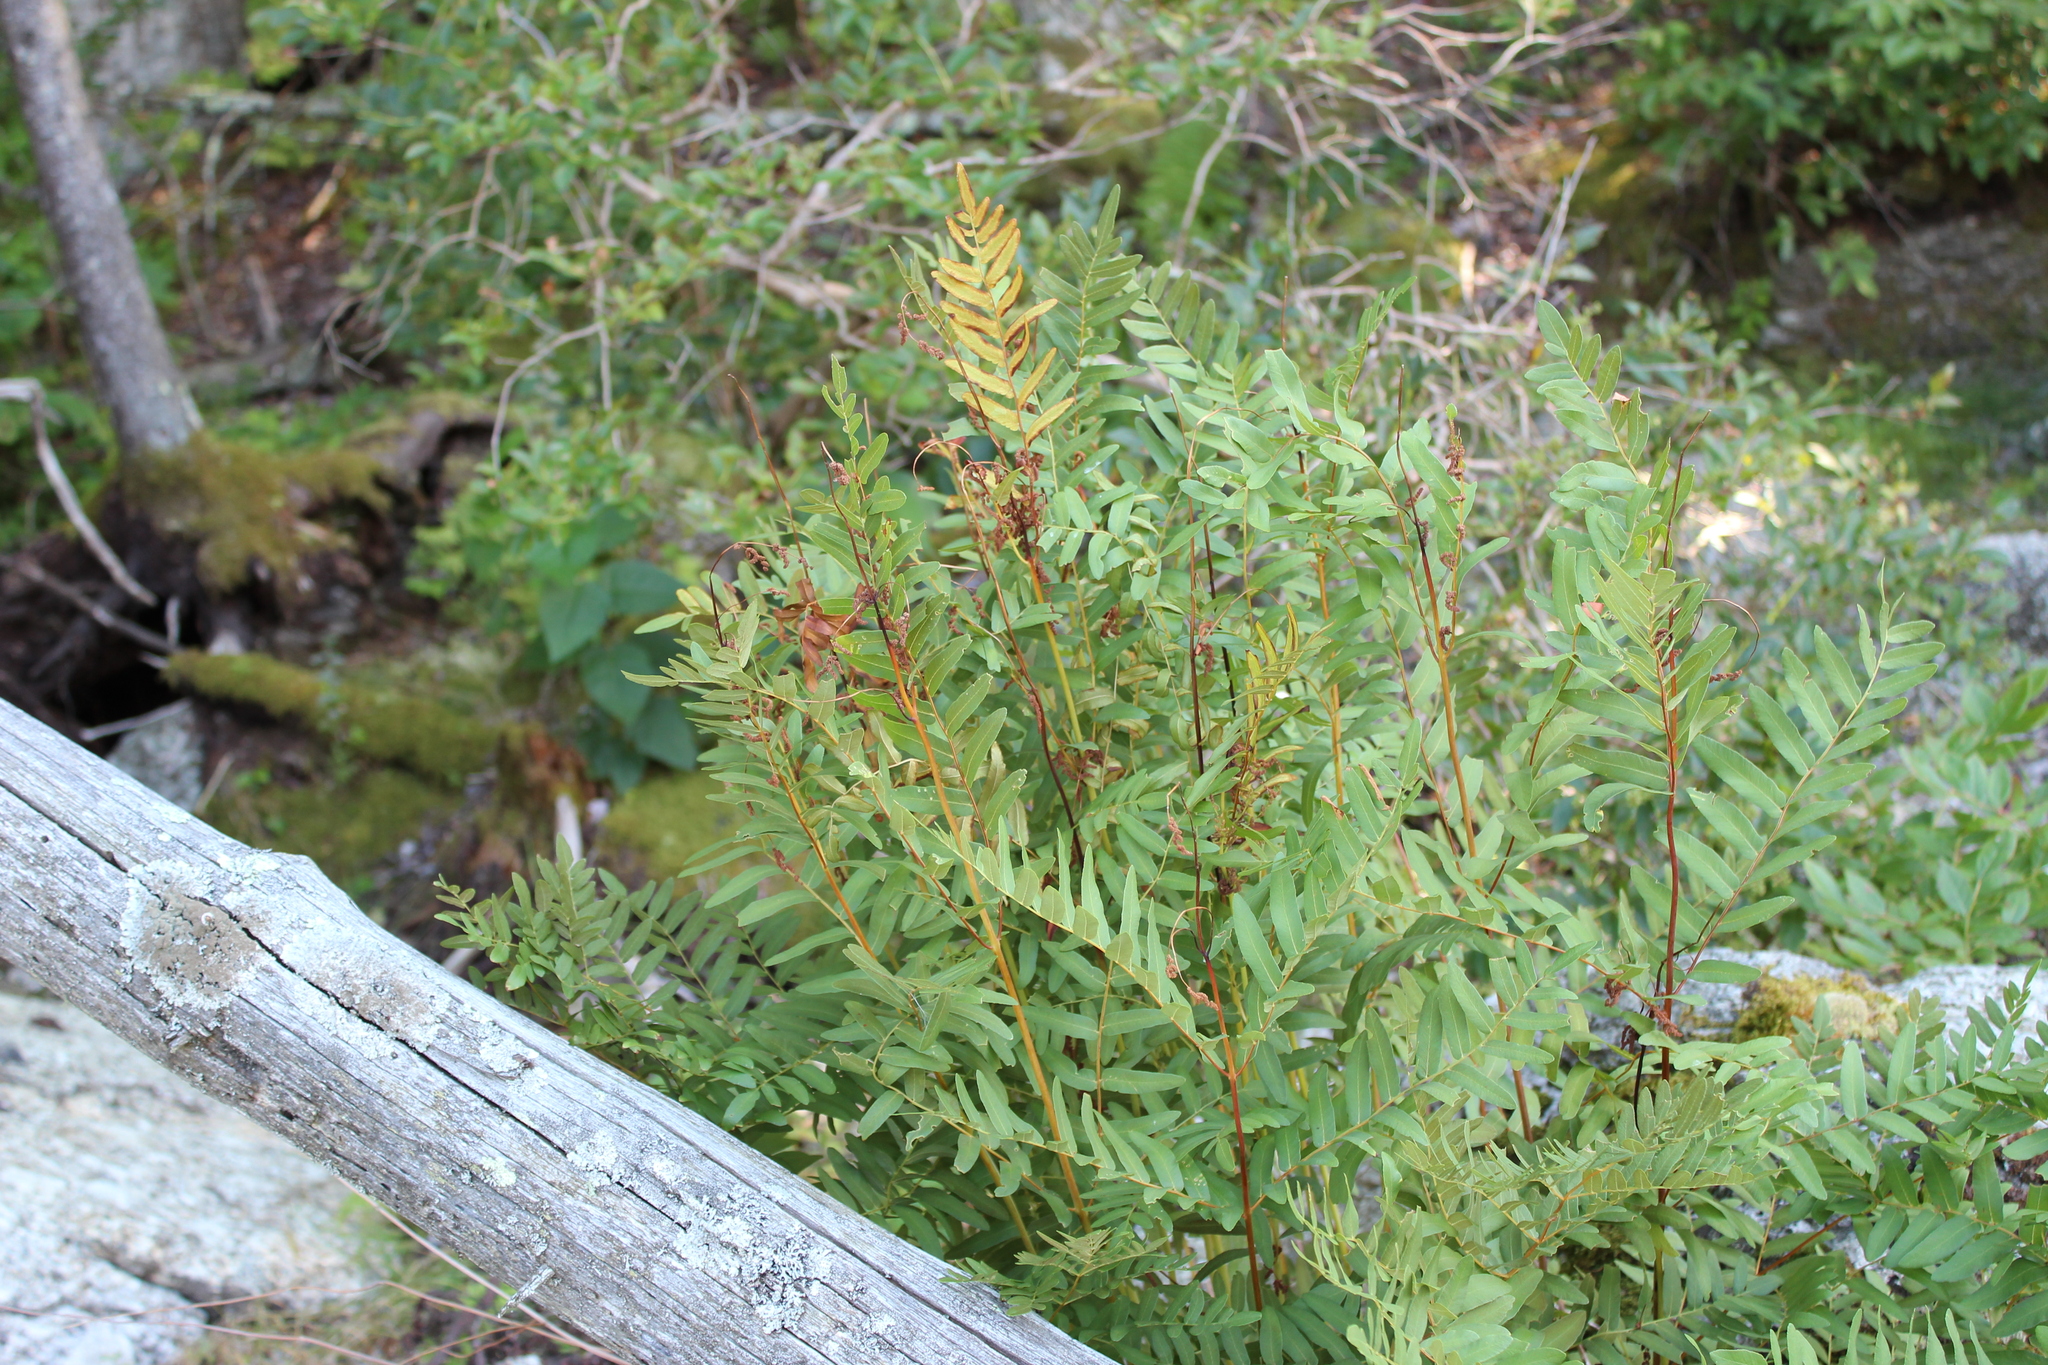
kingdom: Plantae
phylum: Tracheophyta
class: Polypodiopsida
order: Osmundales
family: Osmundaceae
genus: Osmunda
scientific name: Osmunda spectabilis
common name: American royal fern
